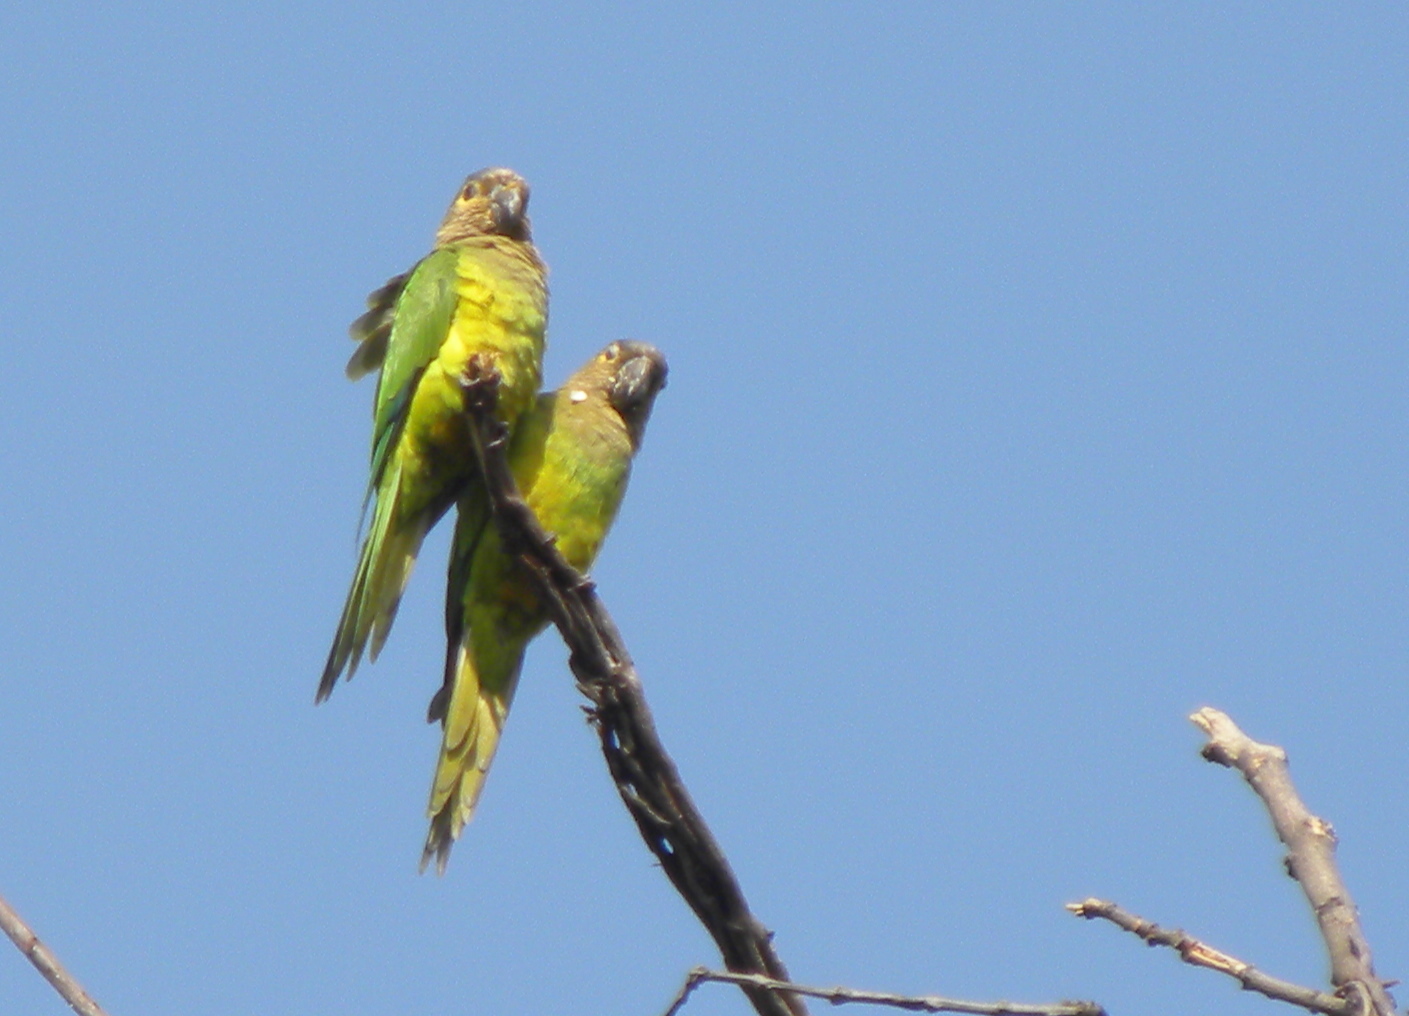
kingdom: Animalia
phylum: Chordata
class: Aves
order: Psittaciformes
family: Psittacidae
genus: Aratinga
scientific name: Aratinga pertinax
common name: Brown-throated parakeet
